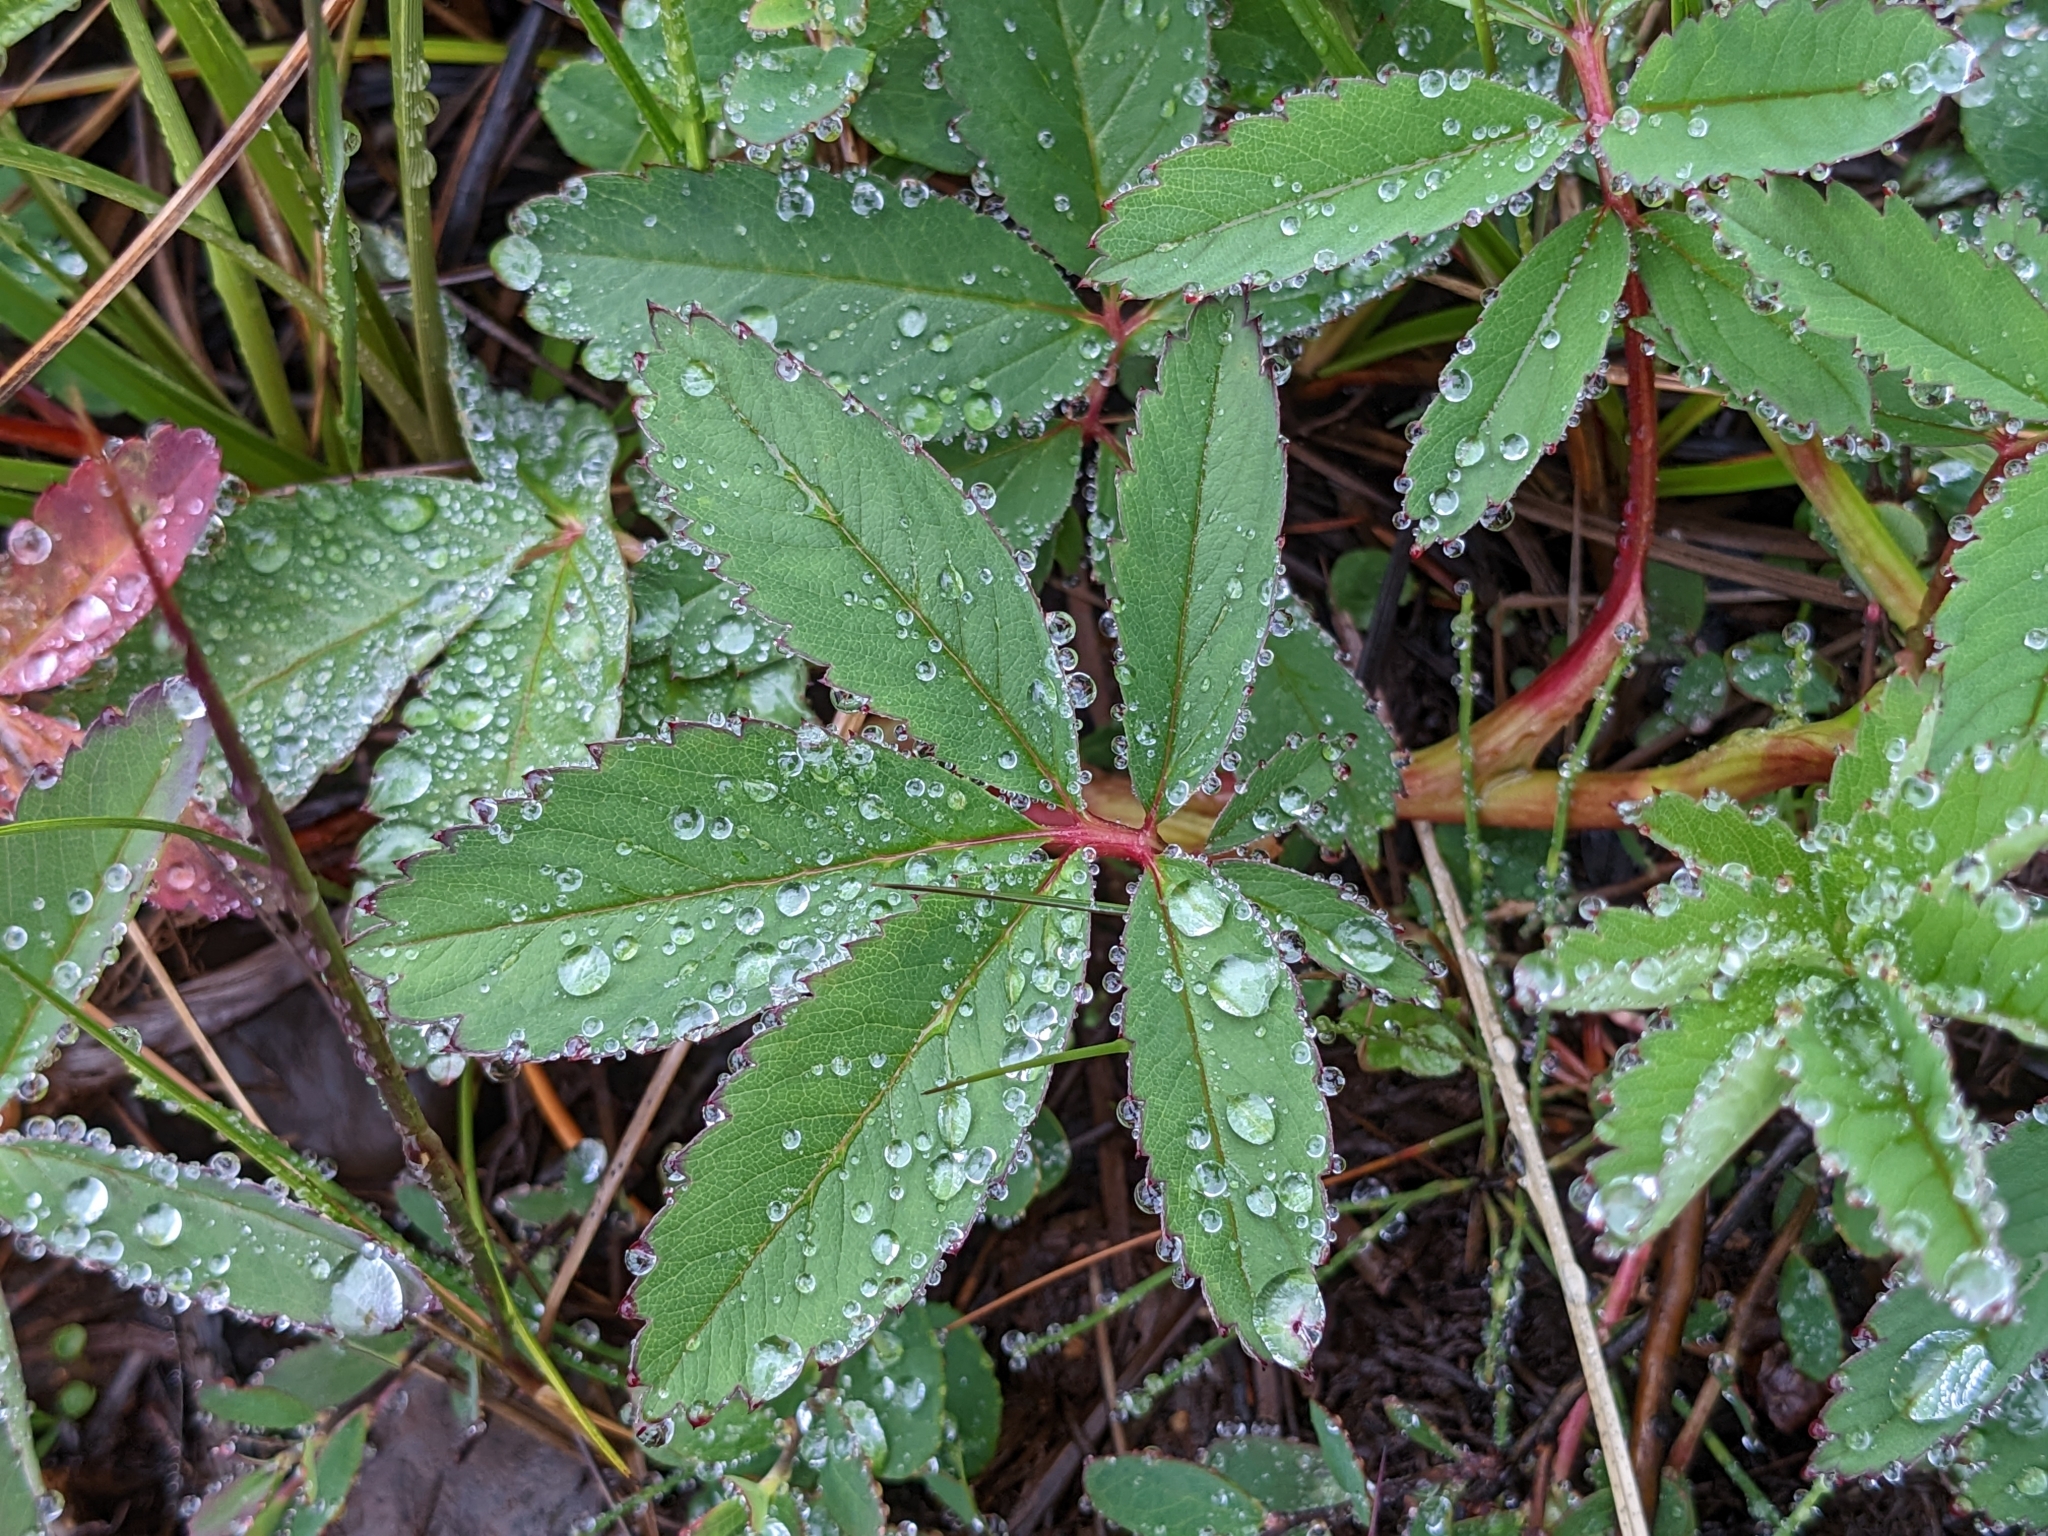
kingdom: Plantae
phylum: Tracheophyta
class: Magnoliopsida
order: Rosales
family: Rosaceae
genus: Comarum
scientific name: Comarum palustre
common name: Marsh cinquefoil
